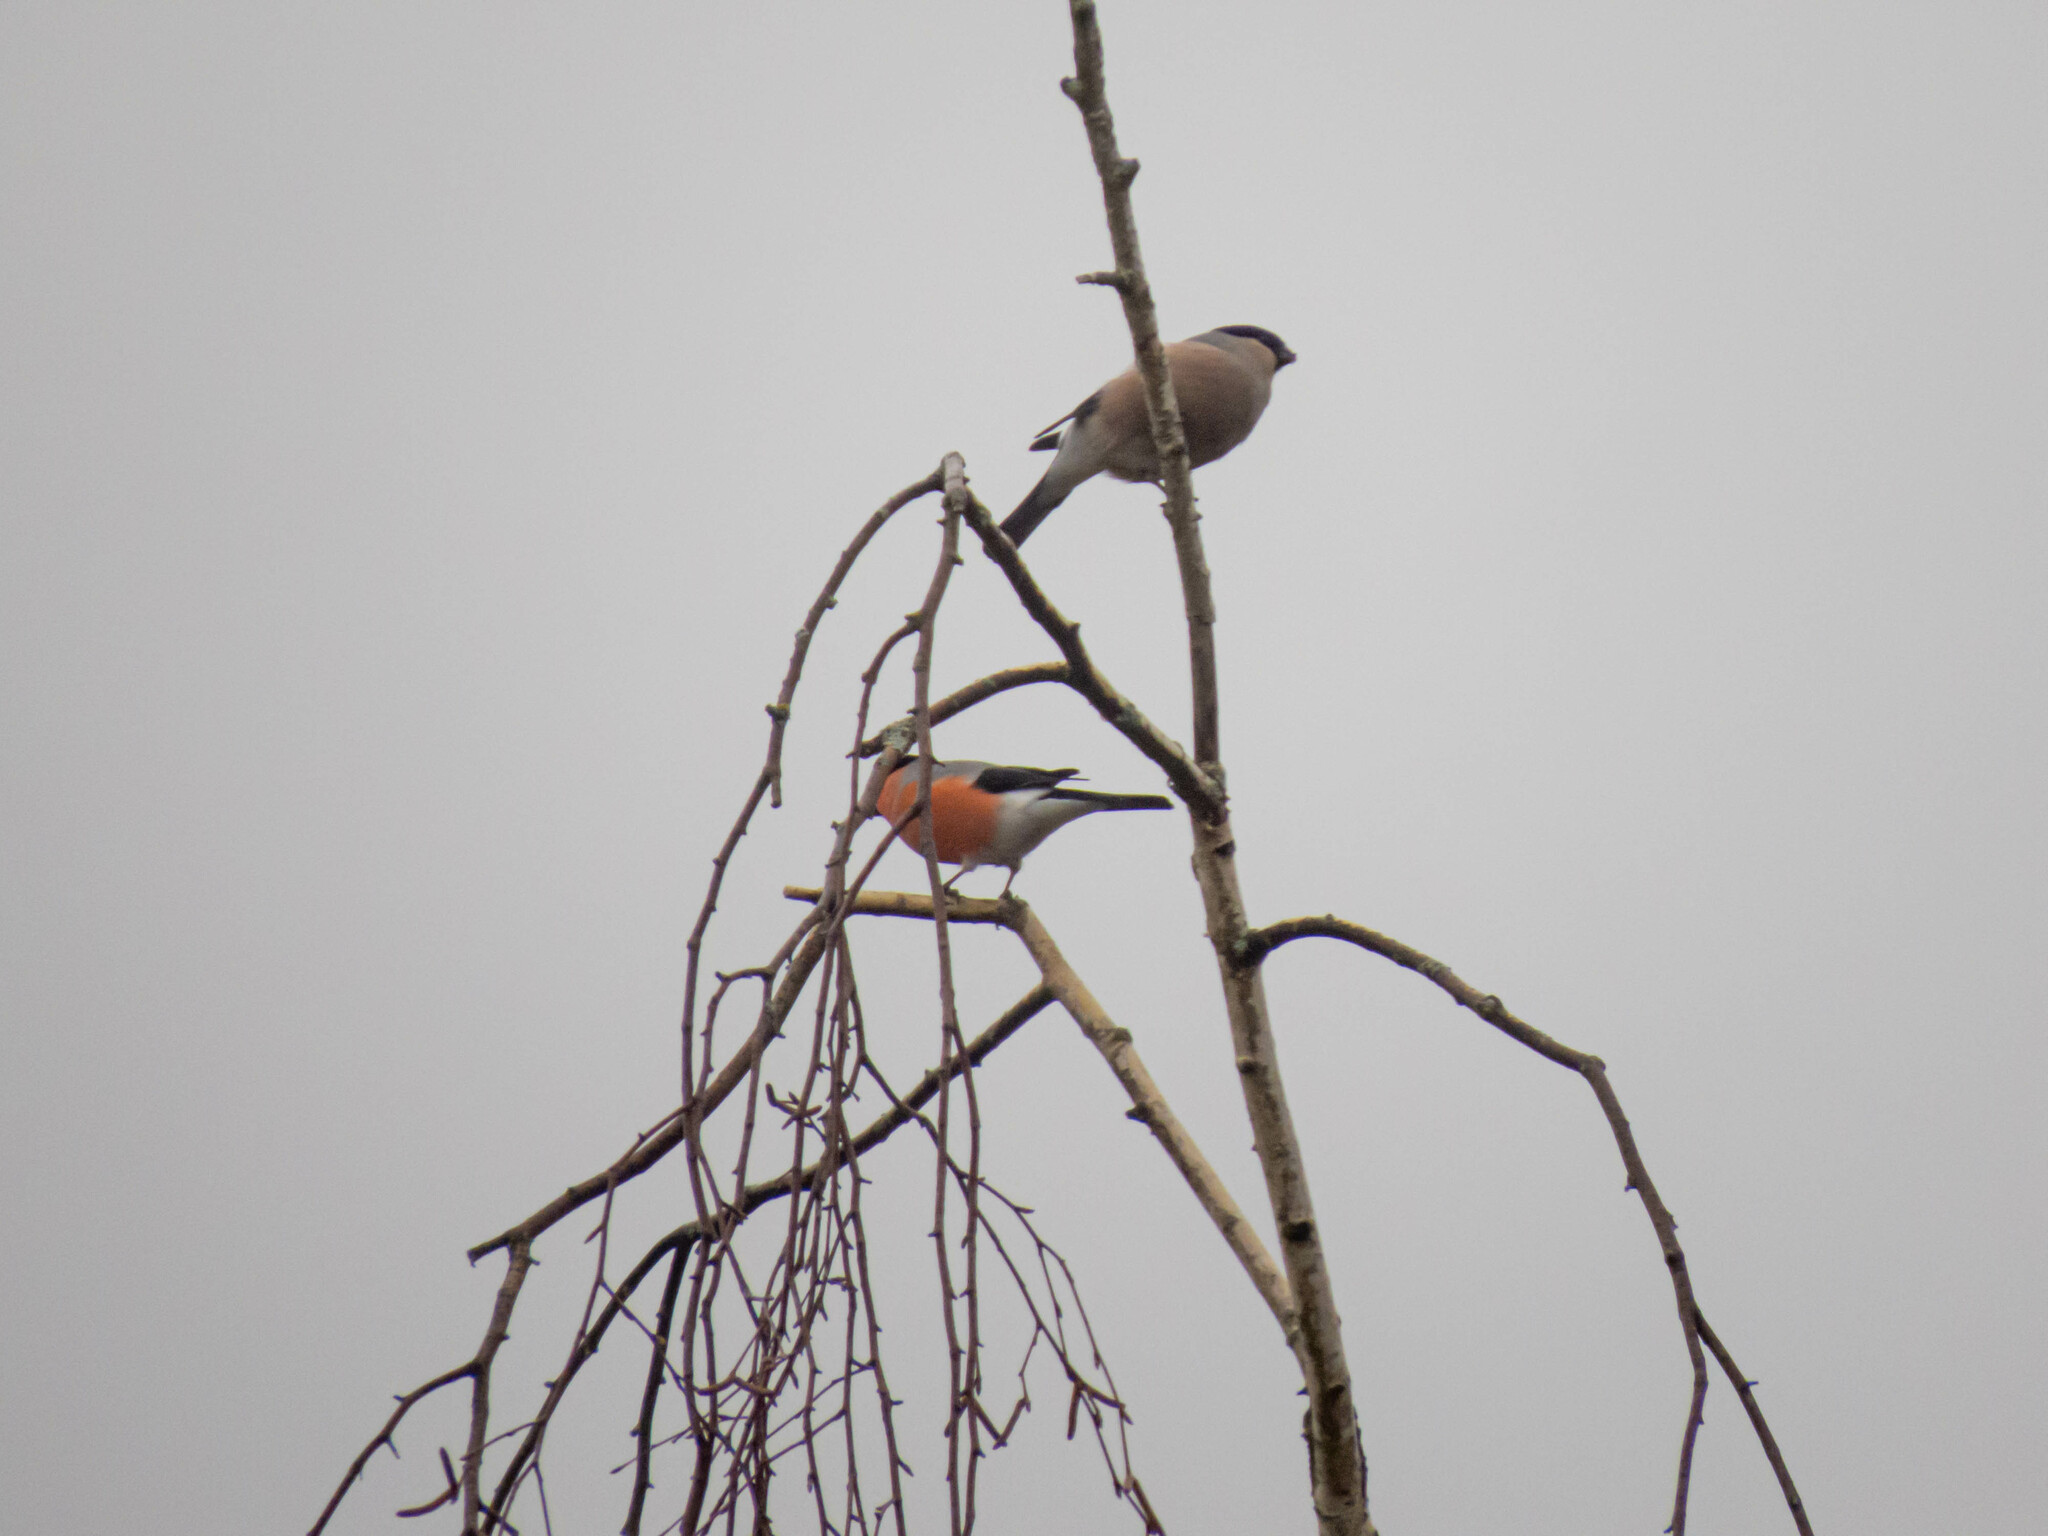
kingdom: Animalia
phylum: Chordata
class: Aves
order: Passeriformes
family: Fringillidae
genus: Pyrrhula
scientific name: Pyrrhula pyrrhula
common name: Eurasian bullfinch
